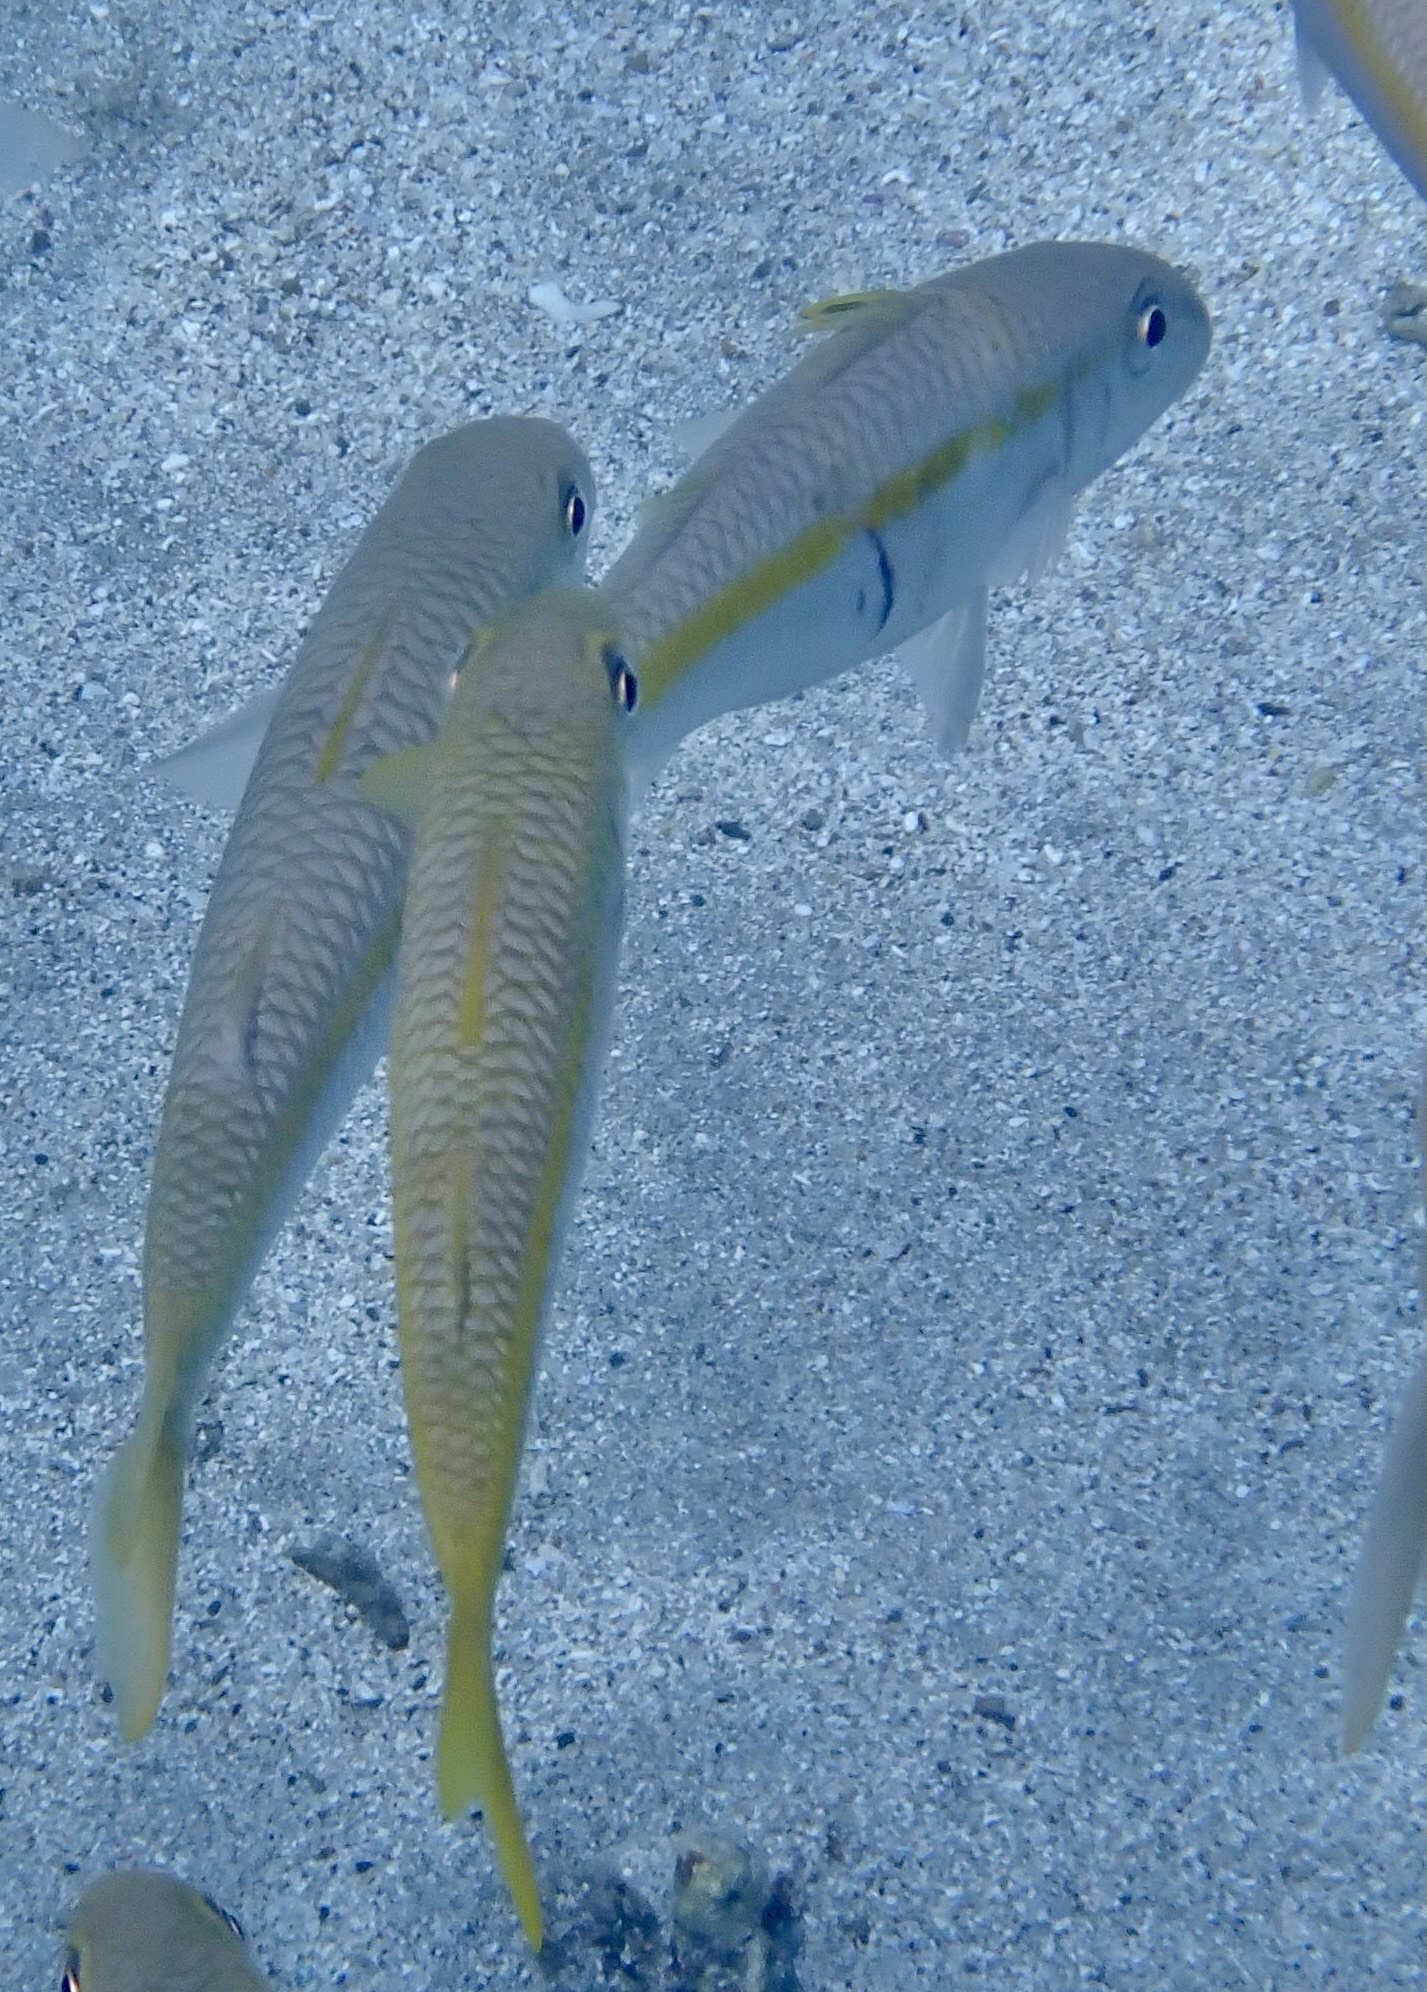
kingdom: Animalia
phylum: Chordata
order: Perciformes
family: Mullidae
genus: Mulloidichthys
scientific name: Mulloidichthys flavolineatus
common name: Yellowstripe goatfish
